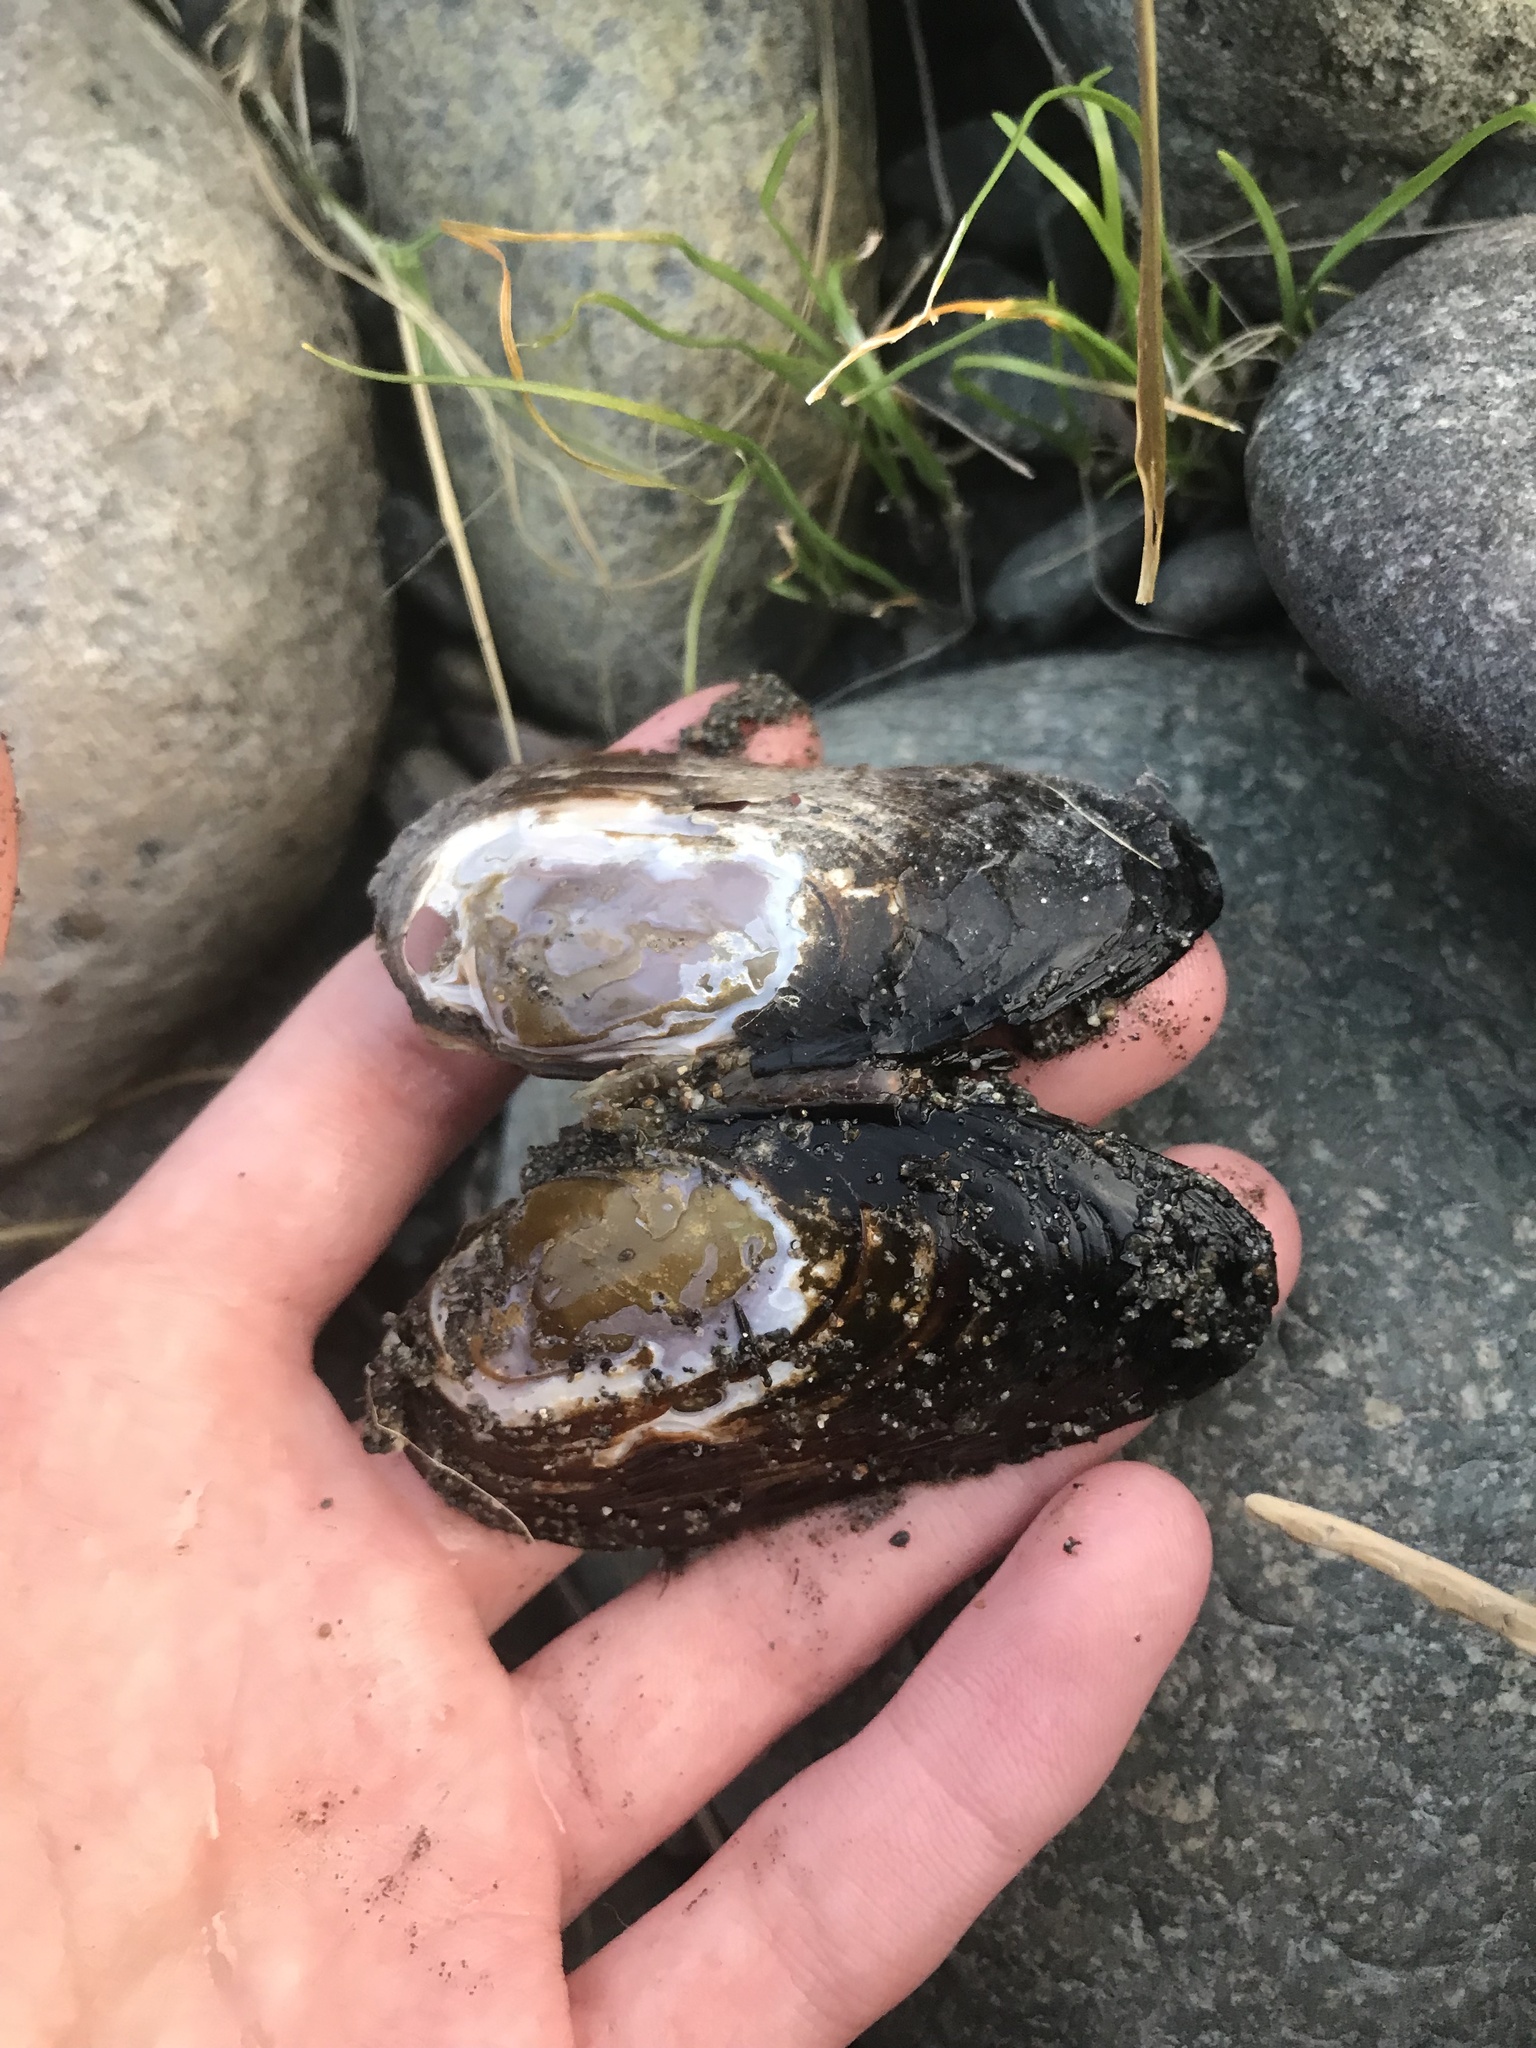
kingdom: Animalia
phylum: Mollusca
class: Bivalvia
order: Unionida
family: Margaritiferidae
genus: Margaritifera
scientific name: Margaritifera falcata
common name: Western pearlshell
